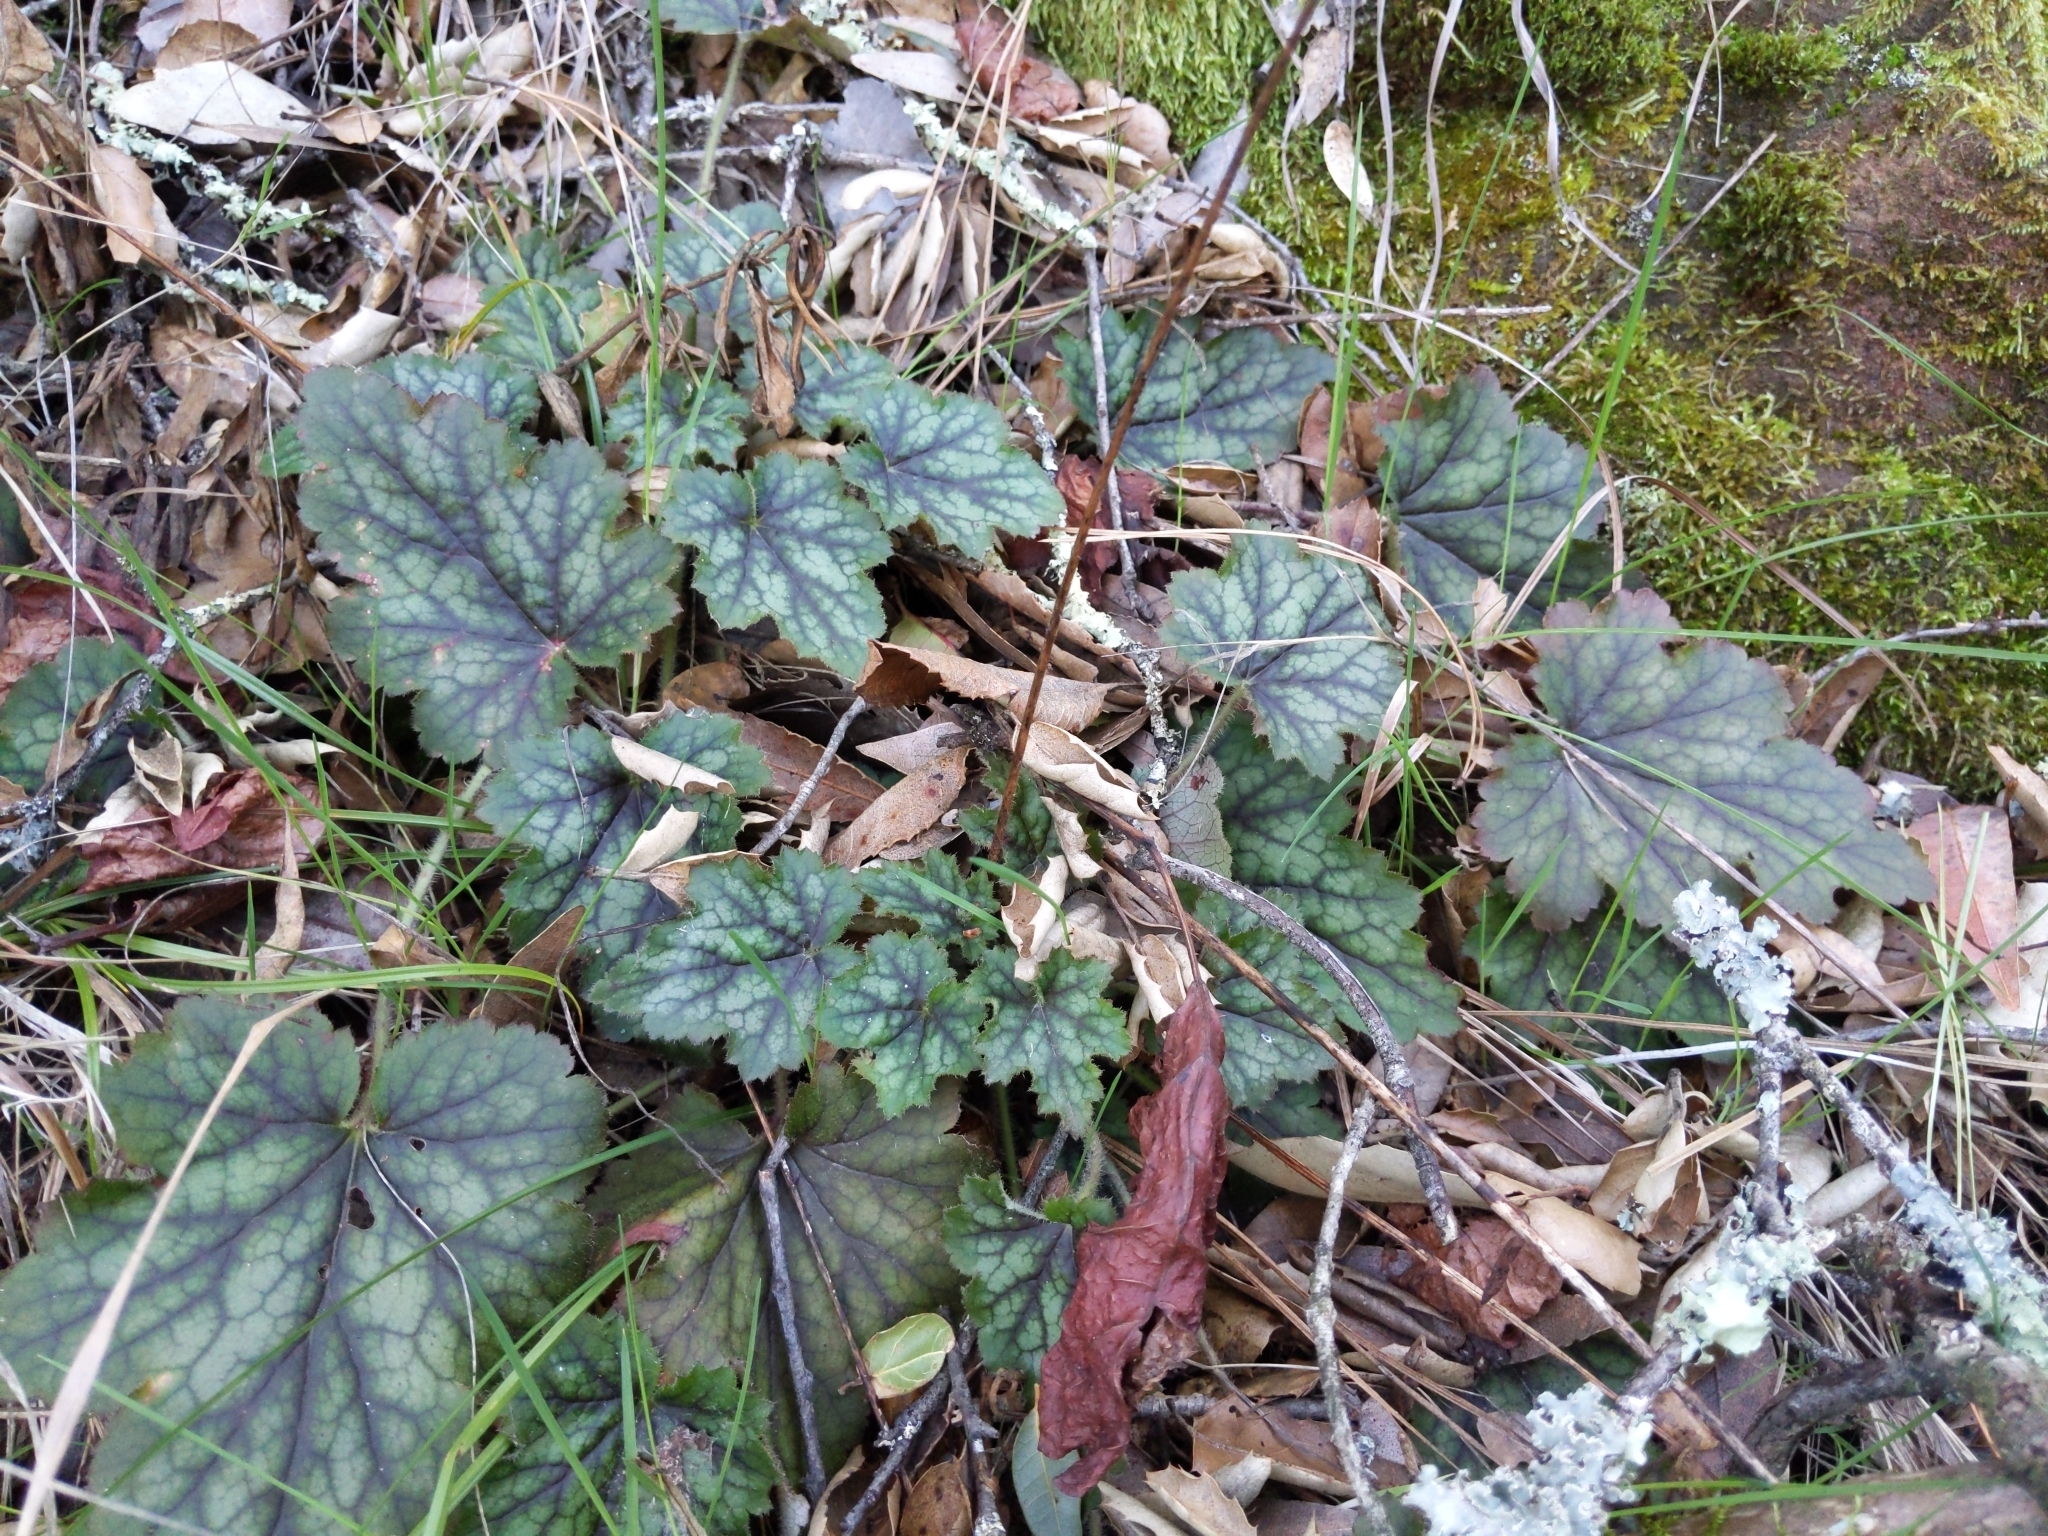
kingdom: Plantae
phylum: Tracheophyta
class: Magnoliopsida
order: Saxifragales
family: Saxifragaceae
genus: Heuchera
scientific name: Heuchera micrantha
